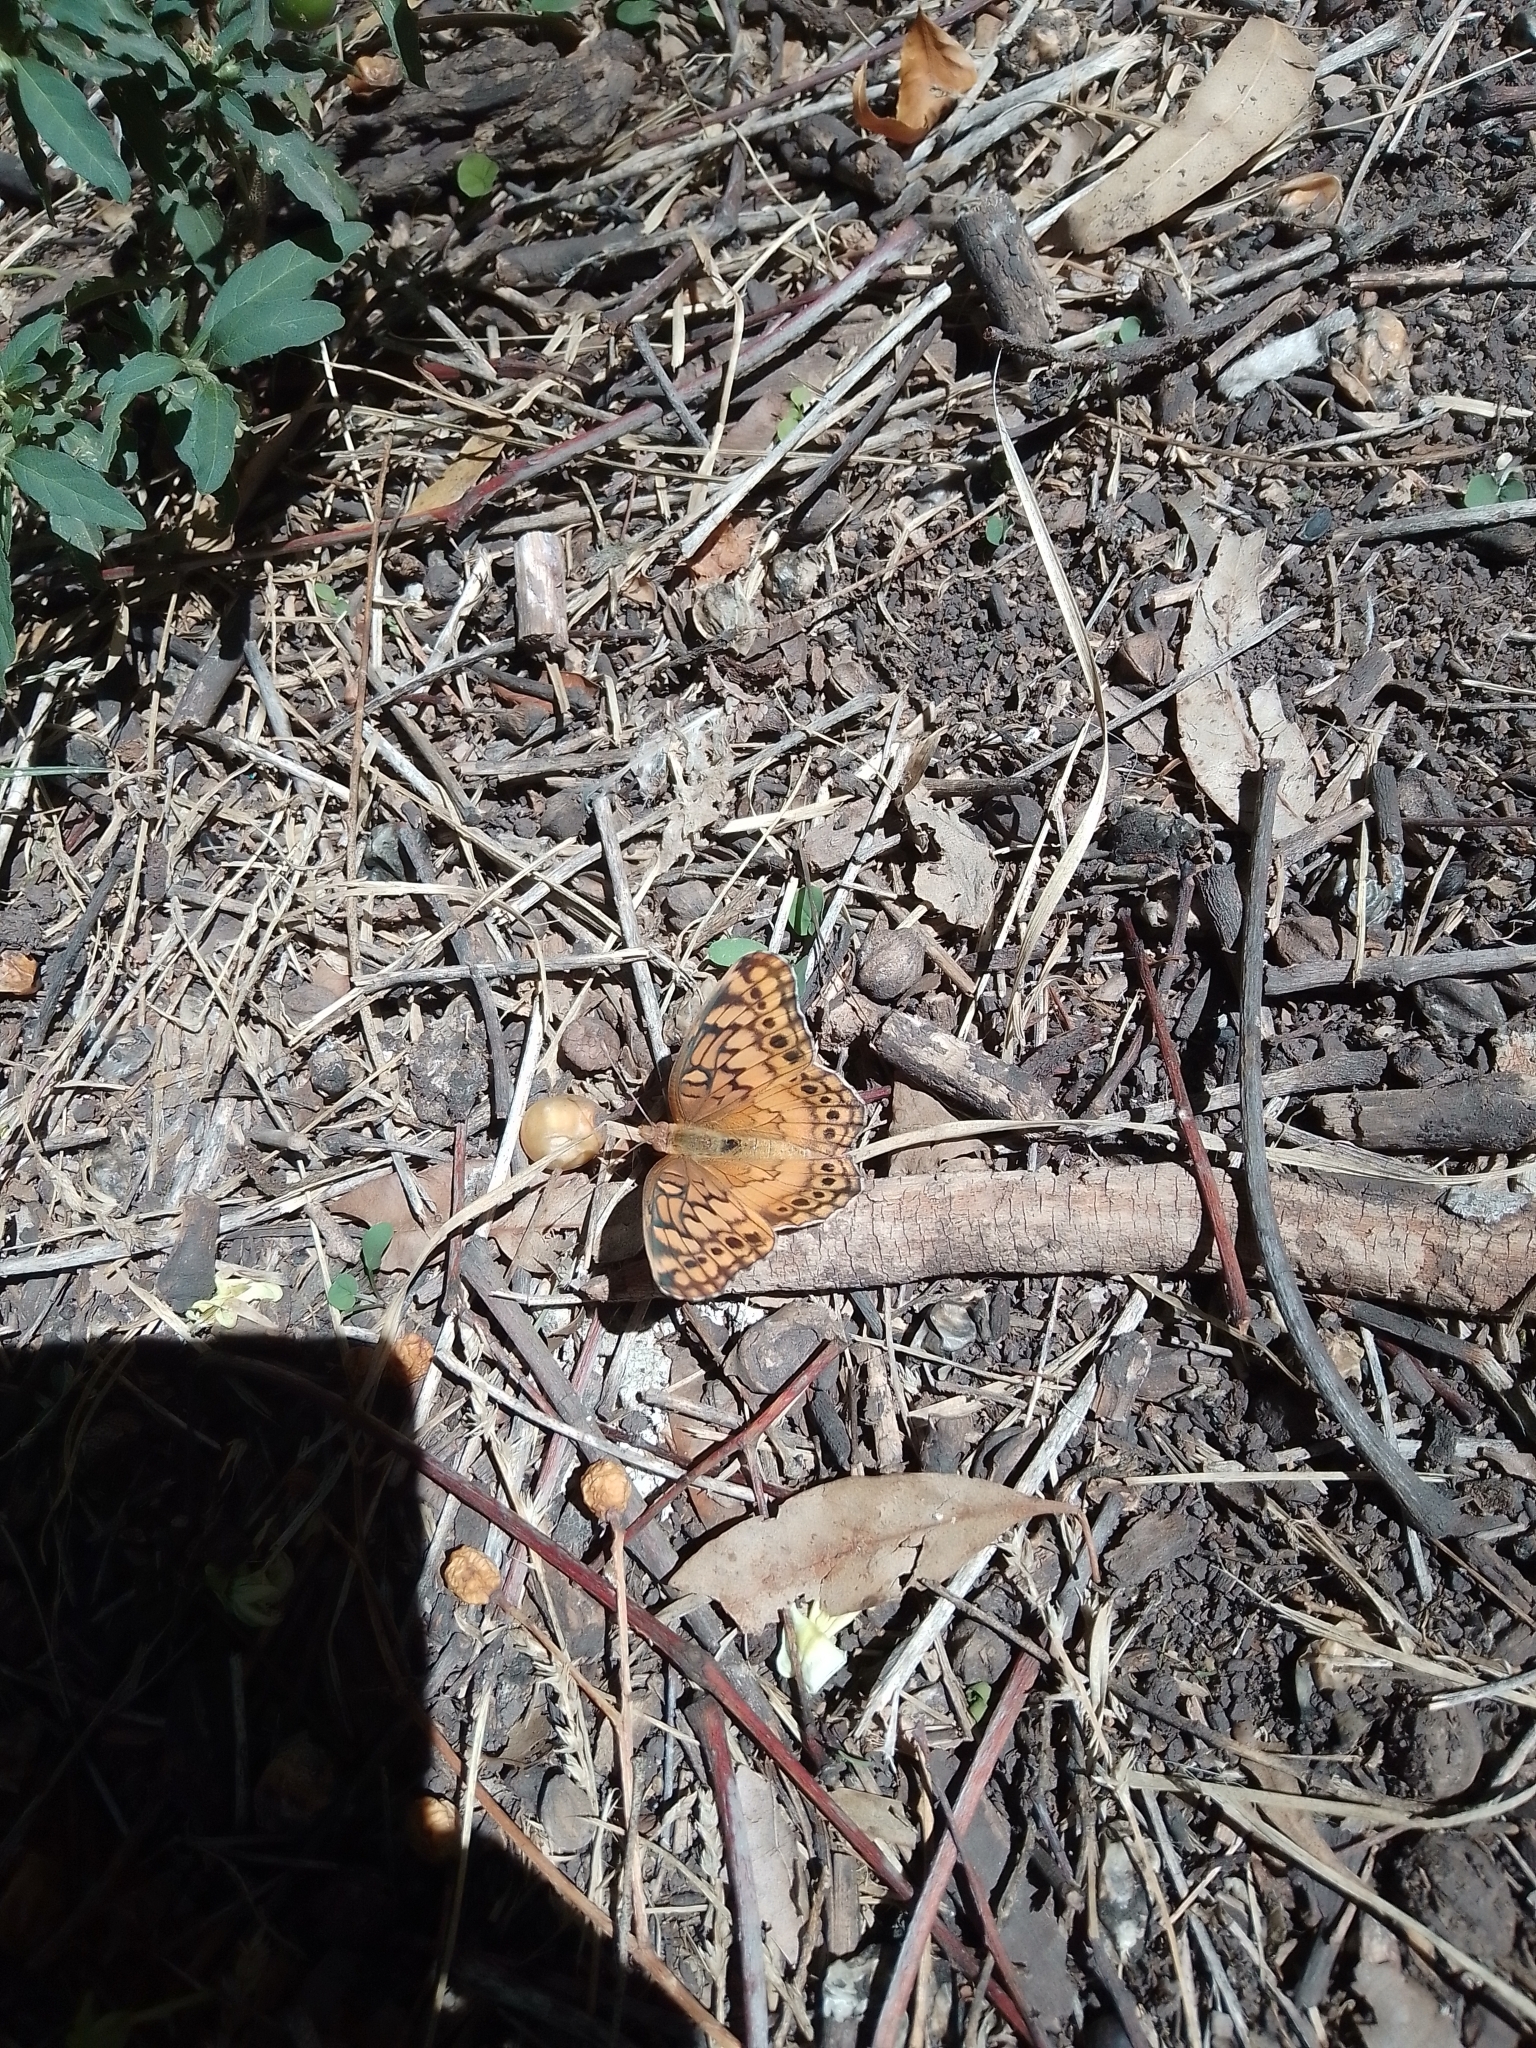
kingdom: Animalia
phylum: Arthropoda
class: Insecta
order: Lepidoptera
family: Nymphalidae
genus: Euptoieta
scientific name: Euptoieta hortensia
